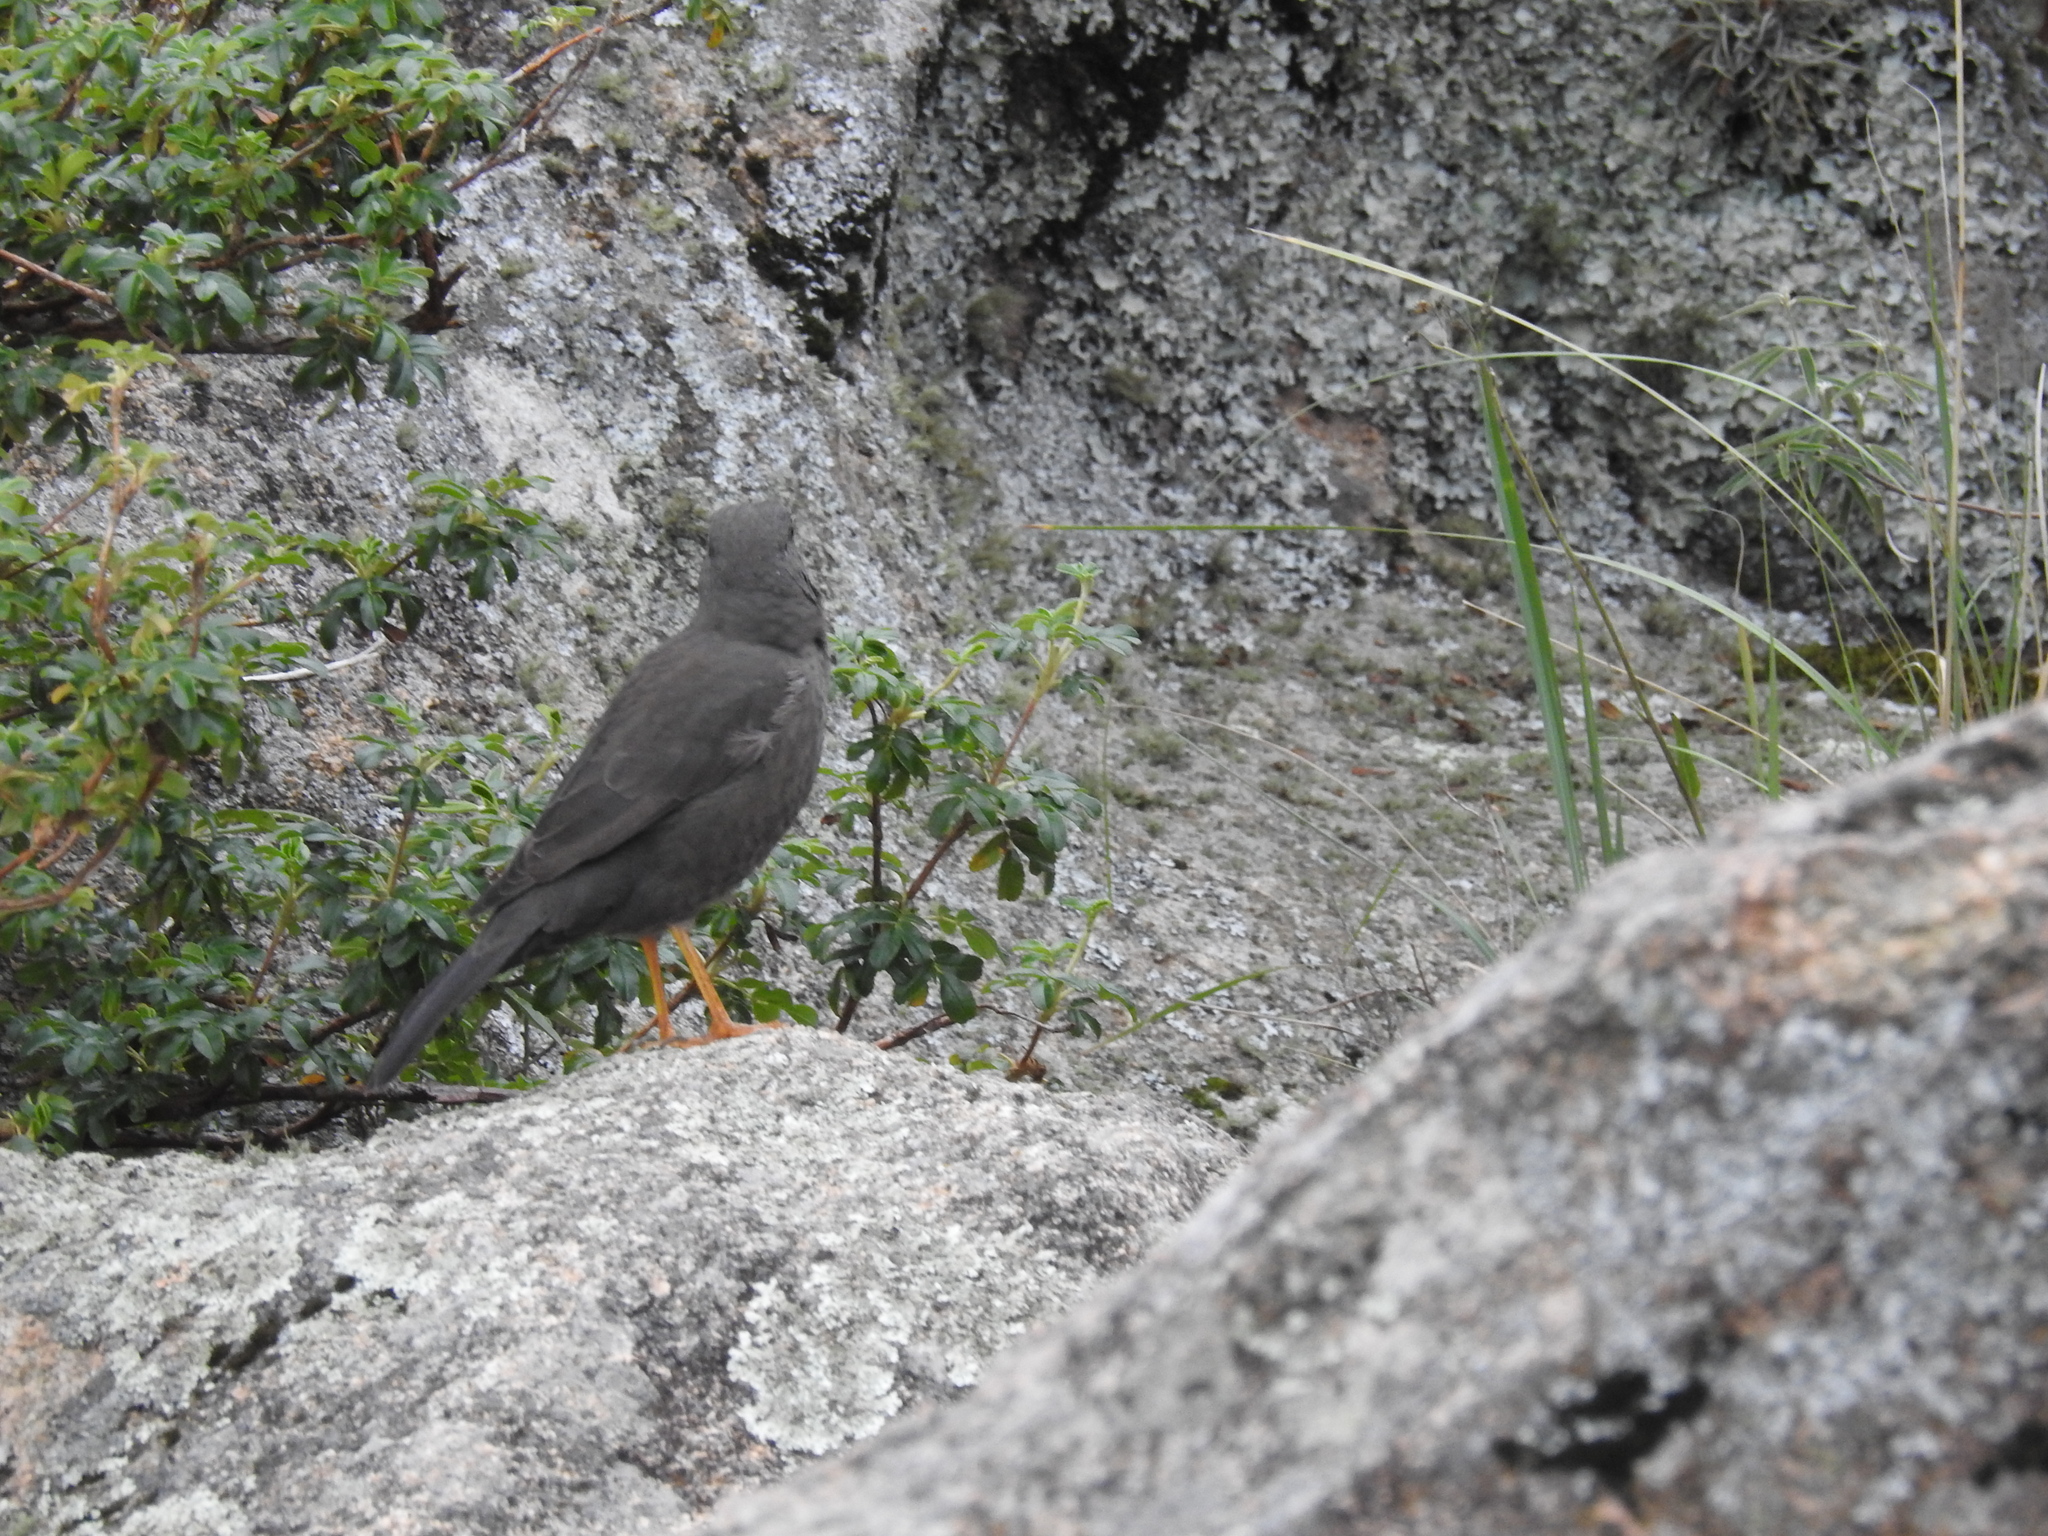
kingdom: Animalia
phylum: Chordata
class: Aves
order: Passeriformes
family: Turdidae
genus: Turdus
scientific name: Turdus chiguanco
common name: Chiguanco thrush
